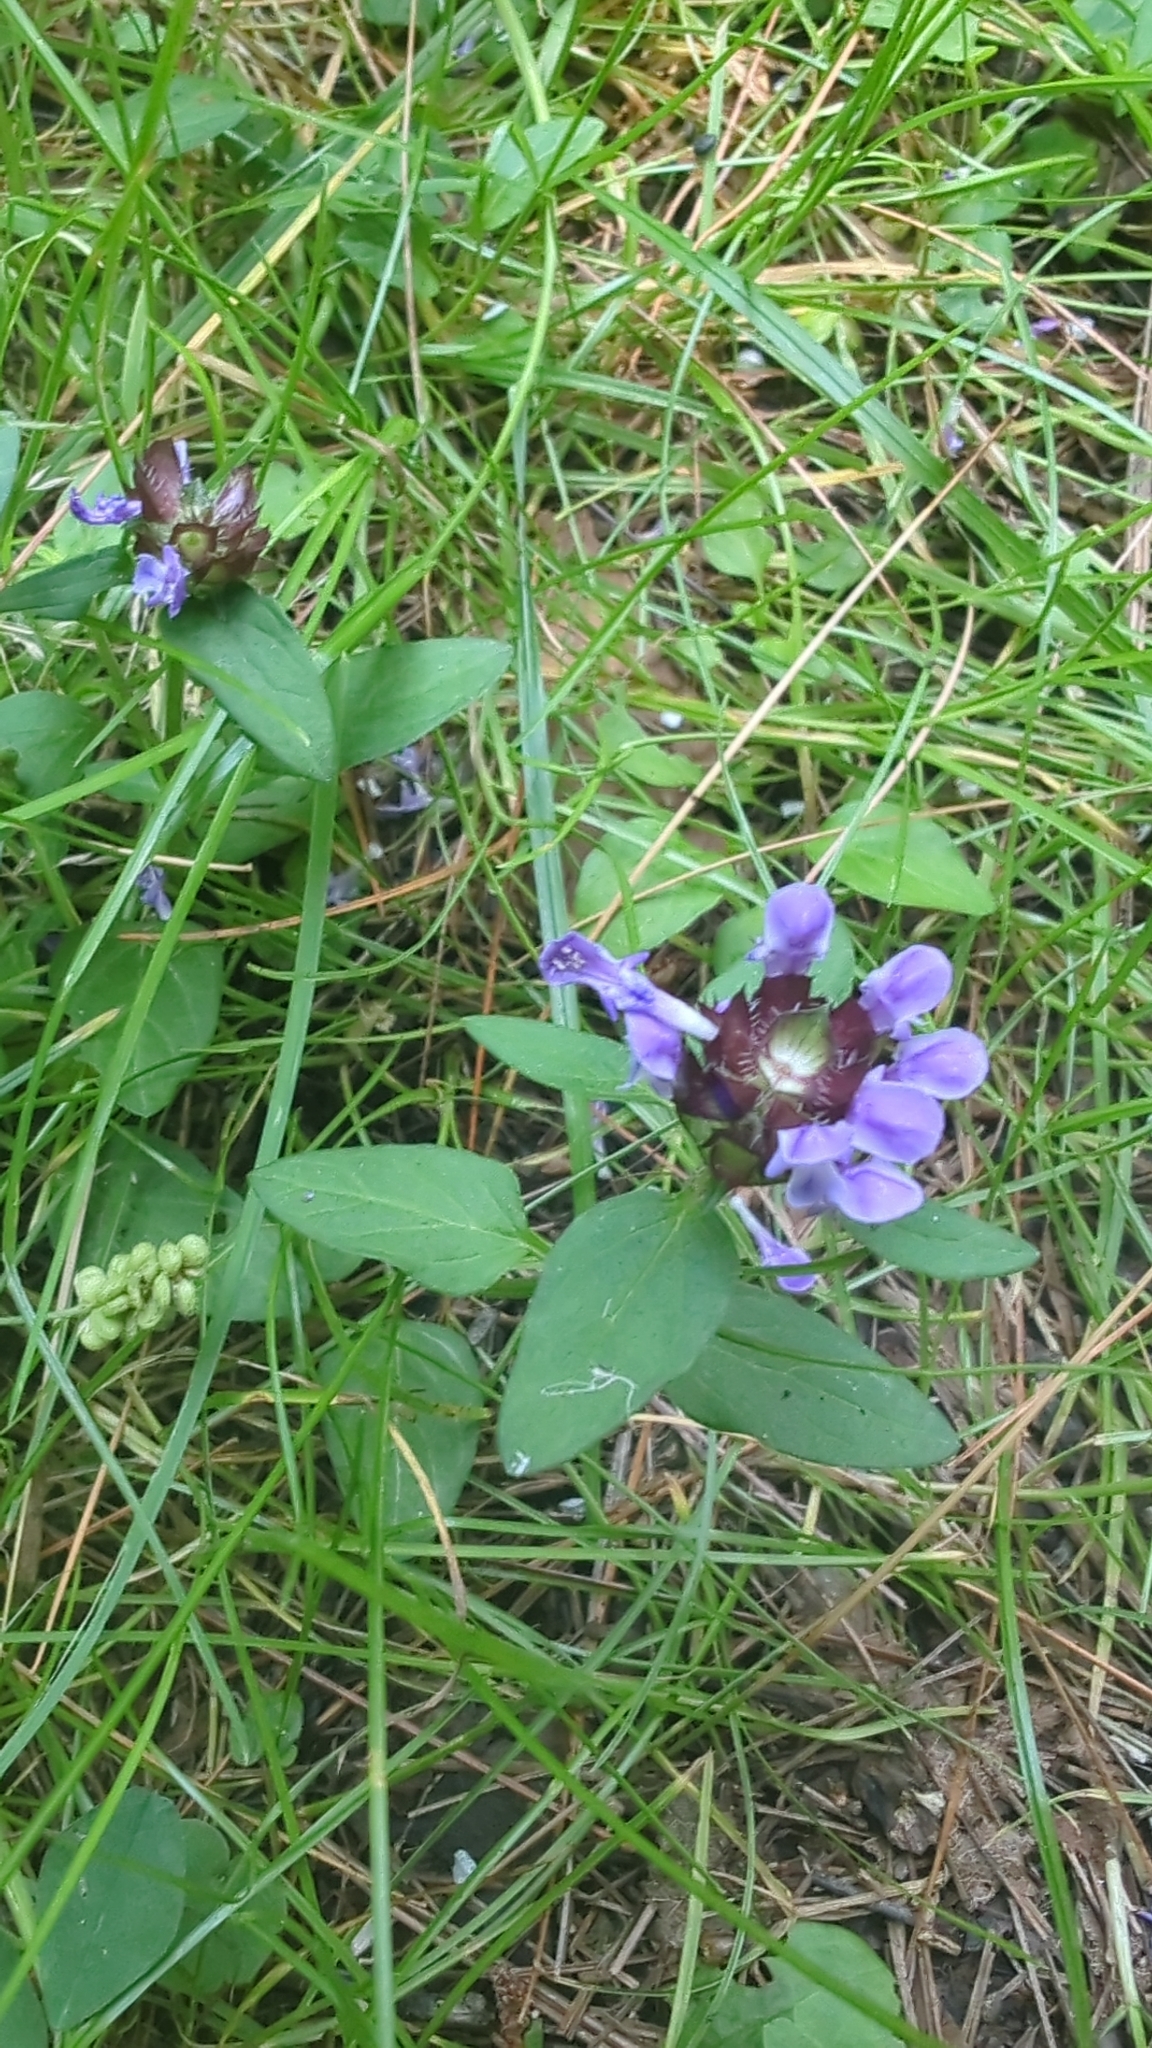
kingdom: Plantae
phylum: Tracheophyta
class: Magnoliopsida
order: Lamiales
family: Lamiaceae
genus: Prunella
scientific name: Prunella vulgaris
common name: Heal-all
